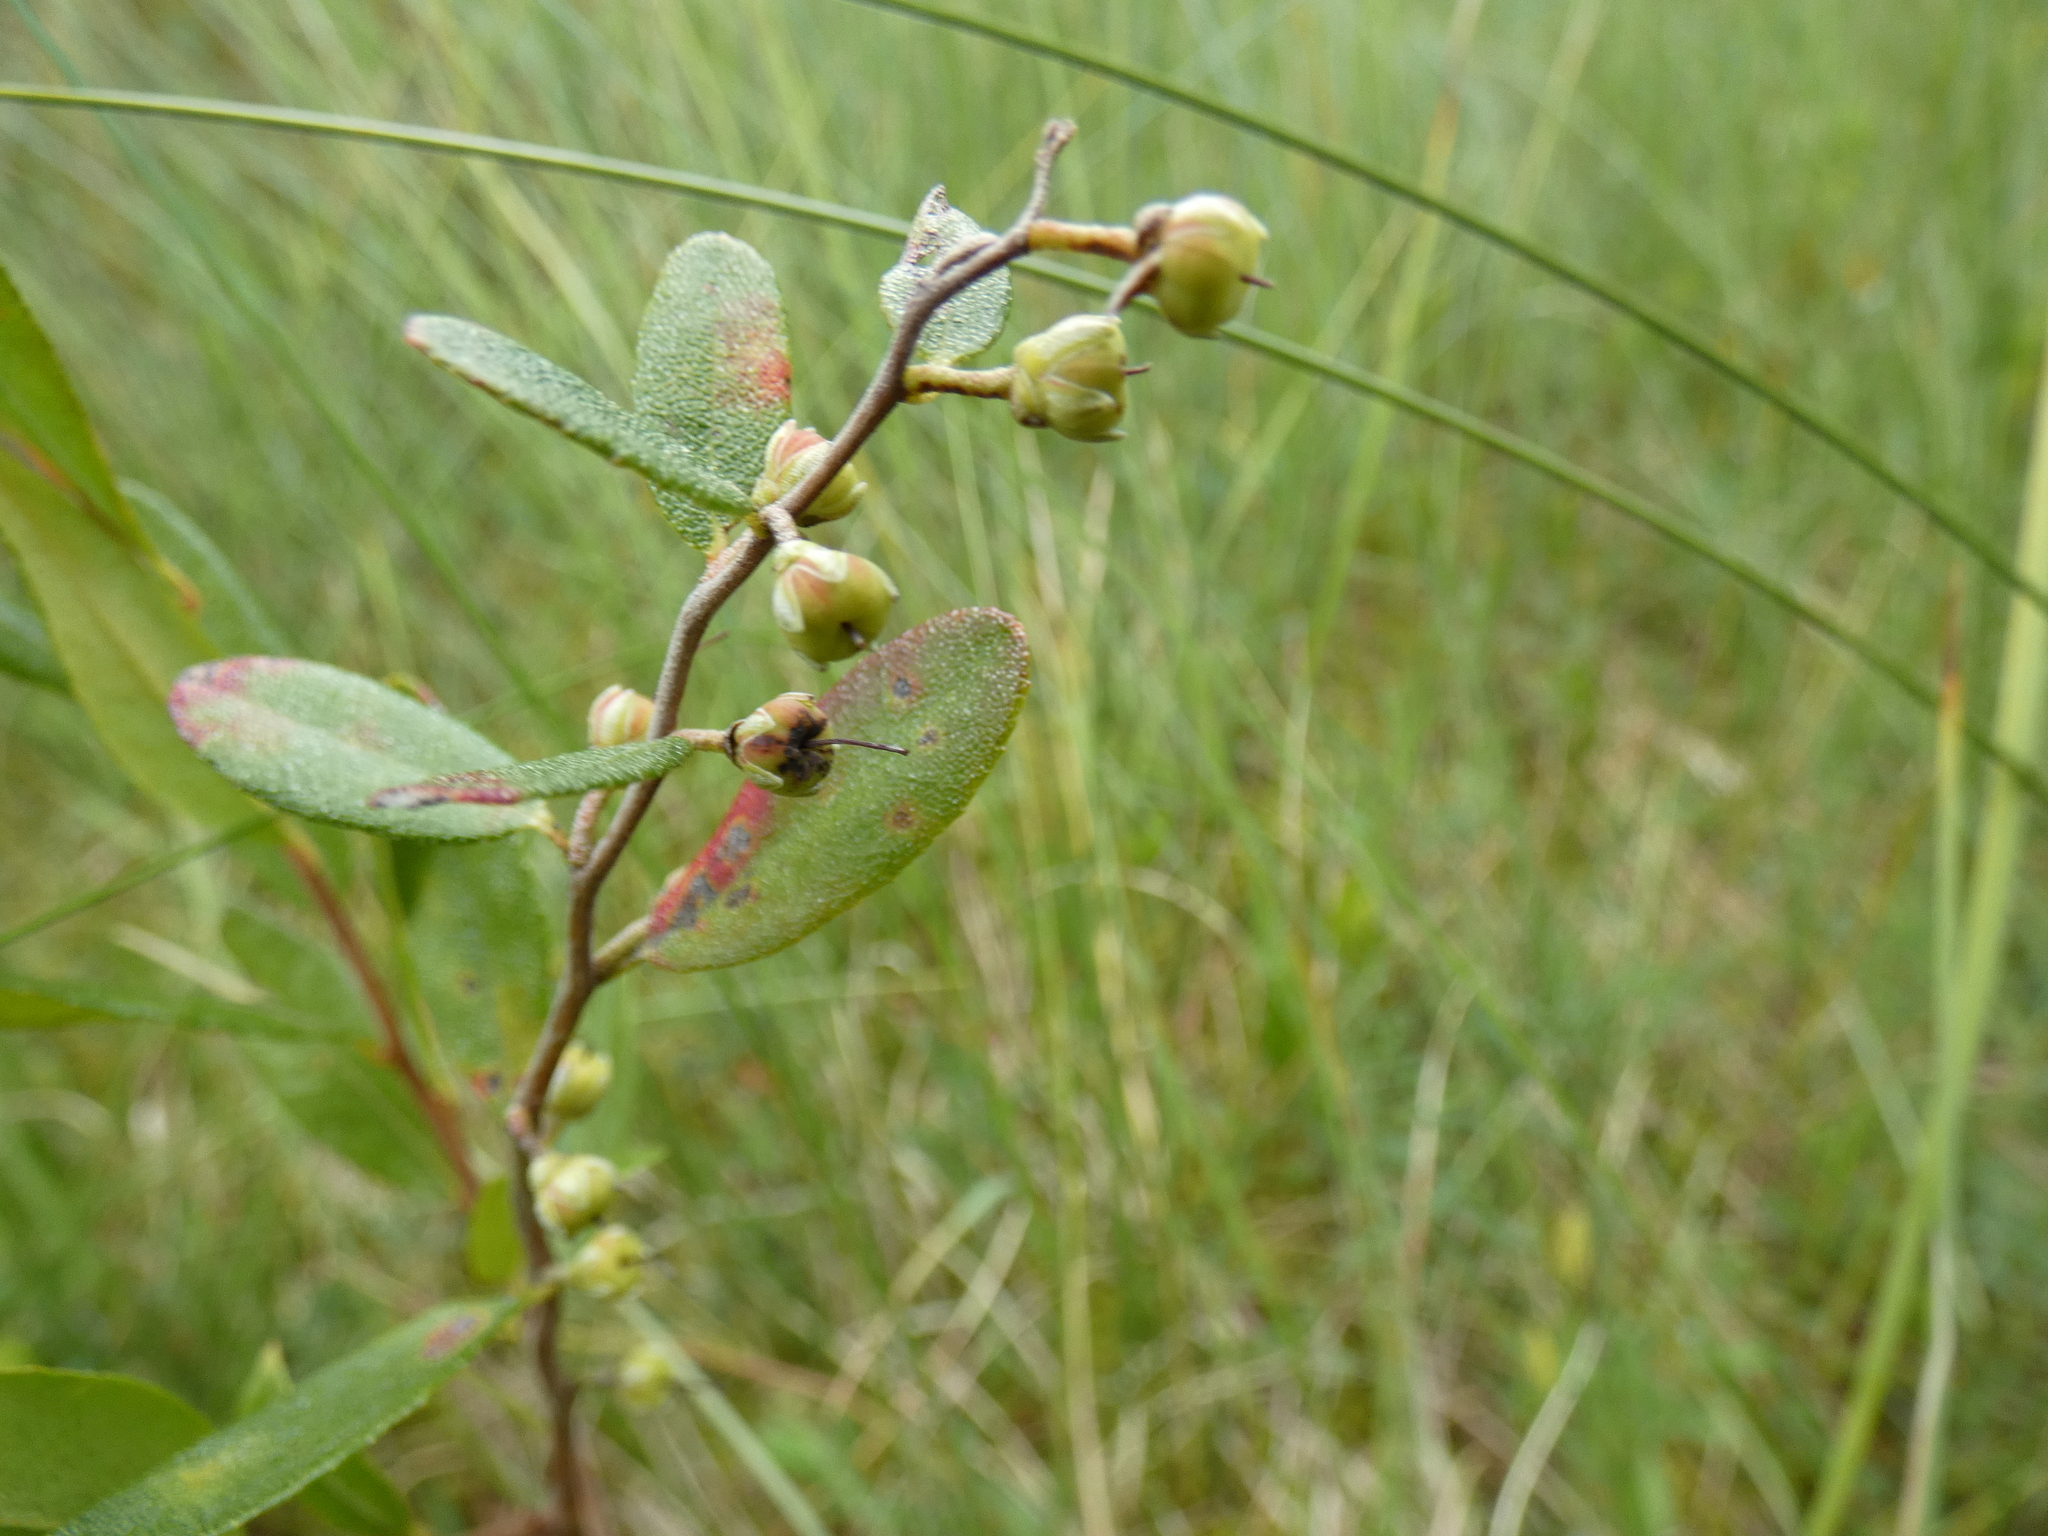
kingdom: Plantae
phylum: Tracheophyta
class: Magnoliopsida
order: Ericales
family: Ericaceae
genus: Chamaedaphne
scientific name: Chamaedaphne calyculata
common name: Leatherleaf
